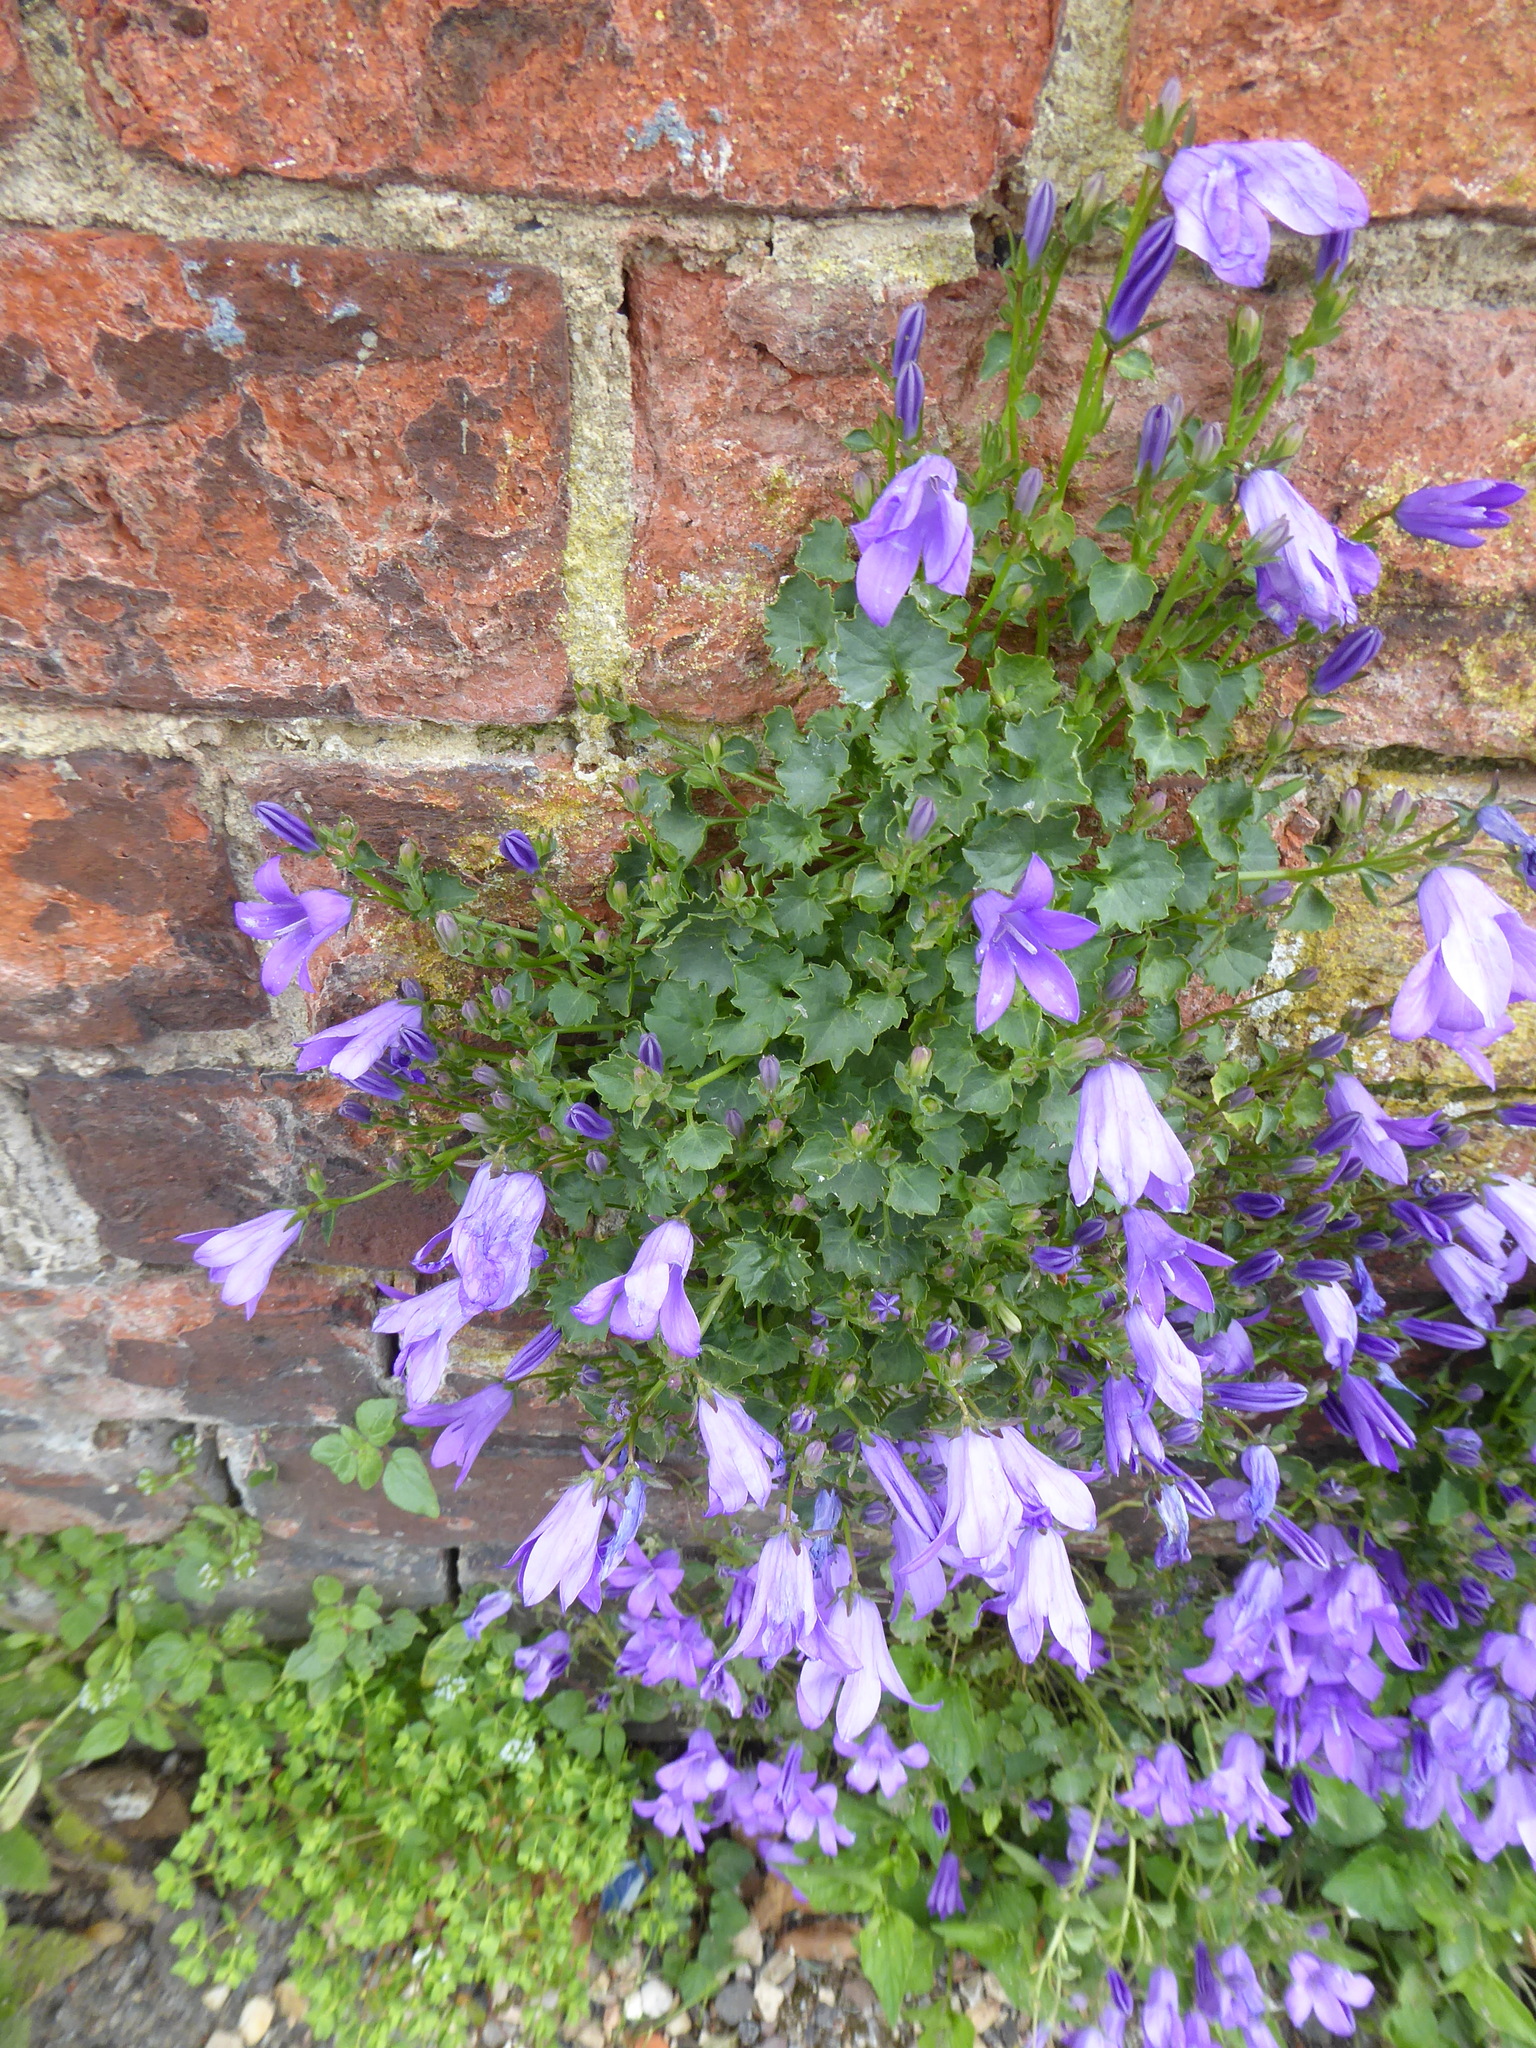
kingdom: Plantae
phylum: Tracheophyta
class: Magnoliopsida
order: Asterales
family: Campanulaceae
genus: Campanula
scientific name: Campanula portenschlagiana
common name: Adria bellflower
